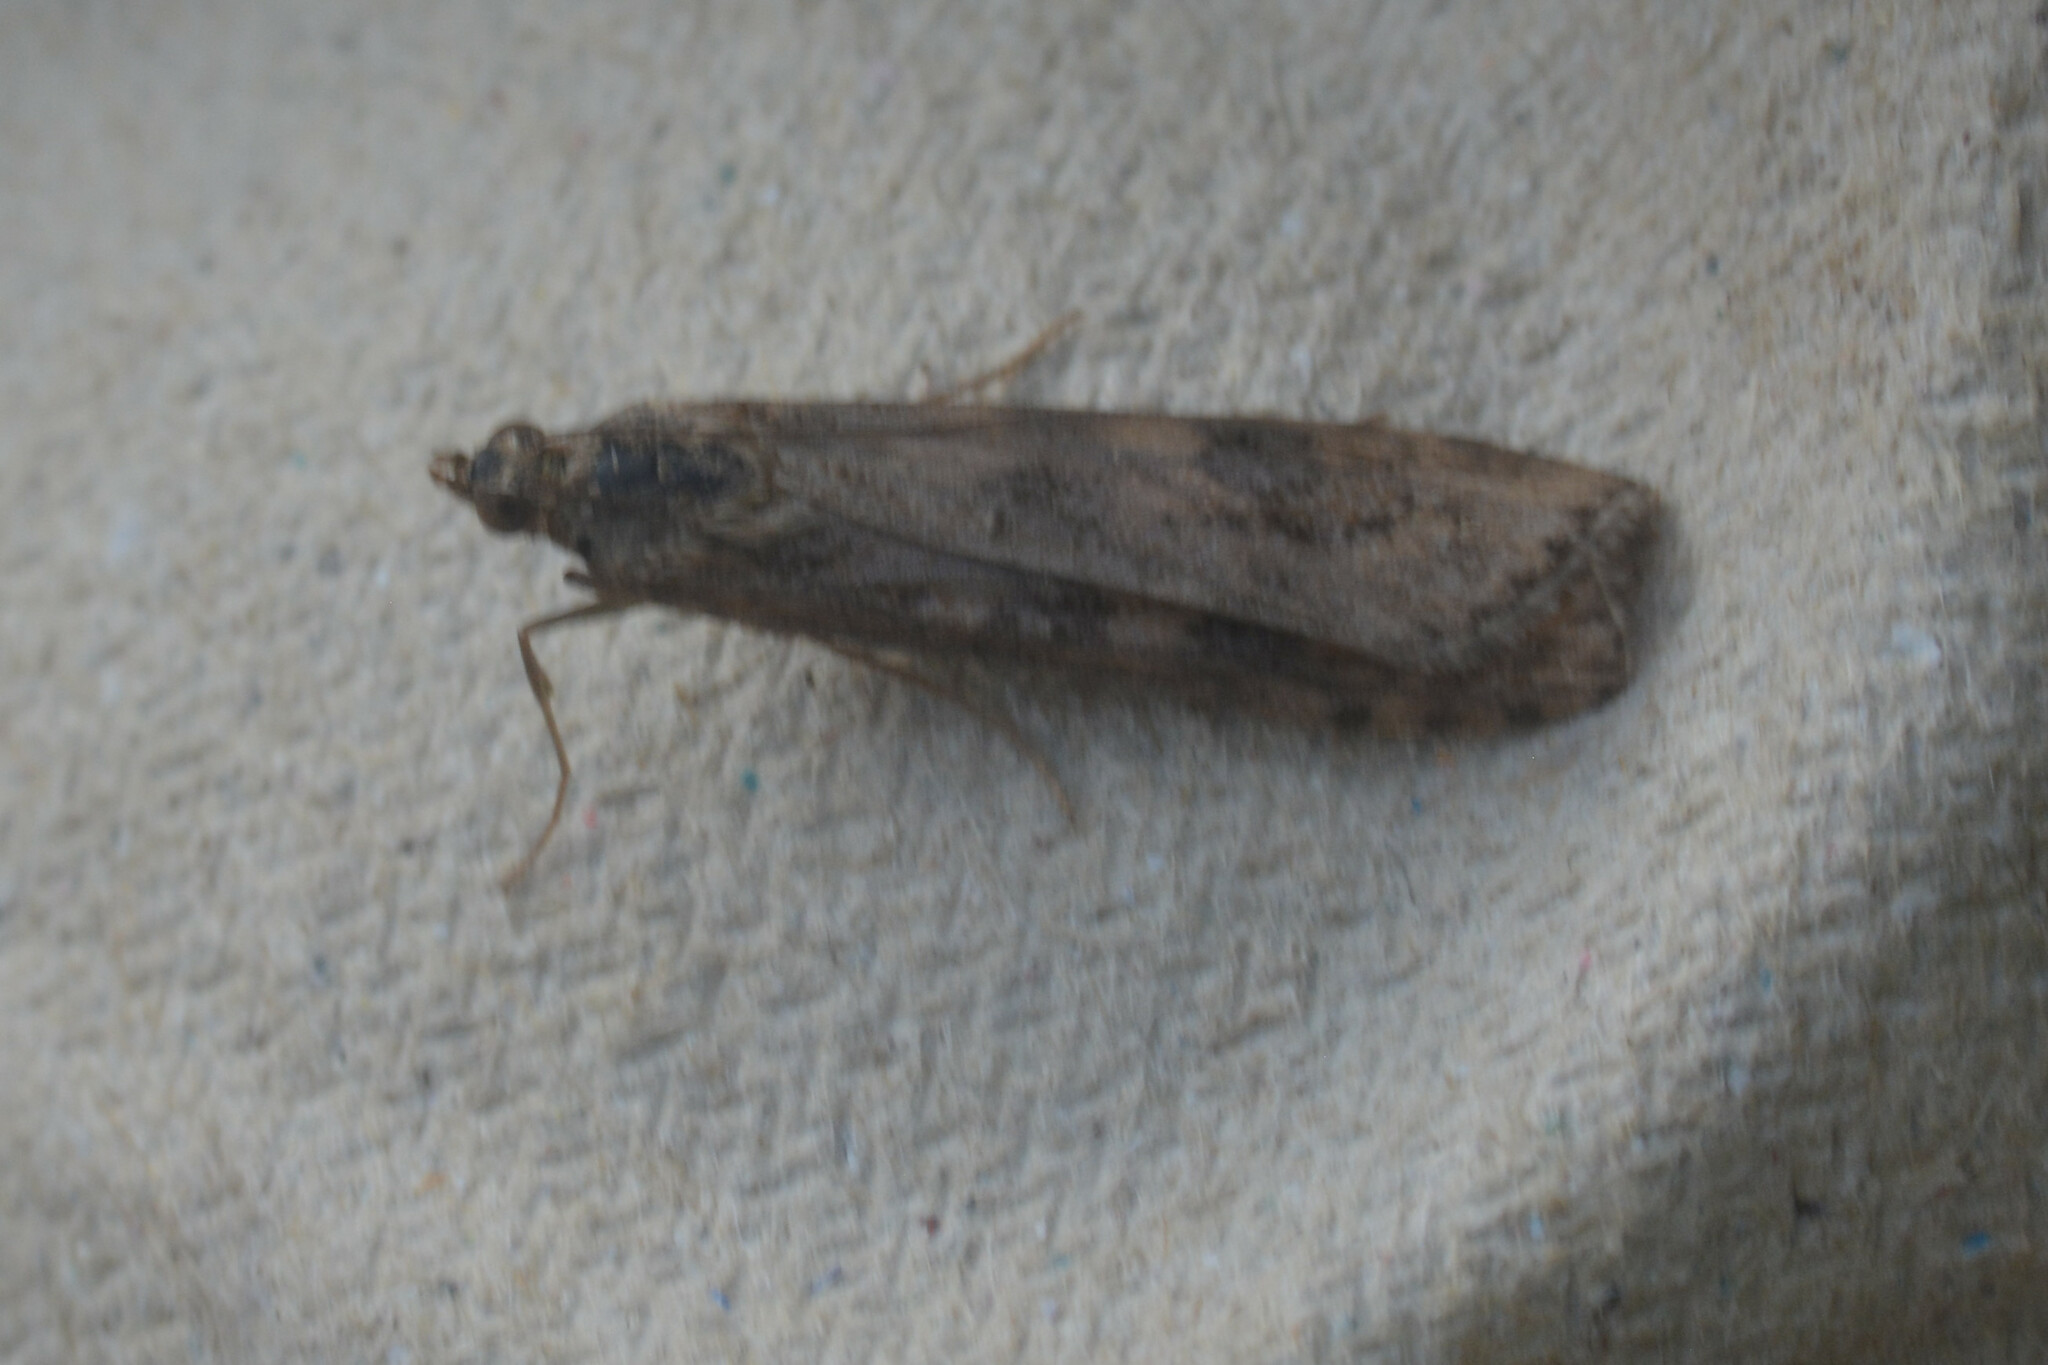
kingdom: Animalia
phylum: Arthropoda
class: Insecta
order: Lepidoptera
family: Crambidae
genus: Nomophila
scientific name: Nomophila noctuella
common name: Rush veneer
